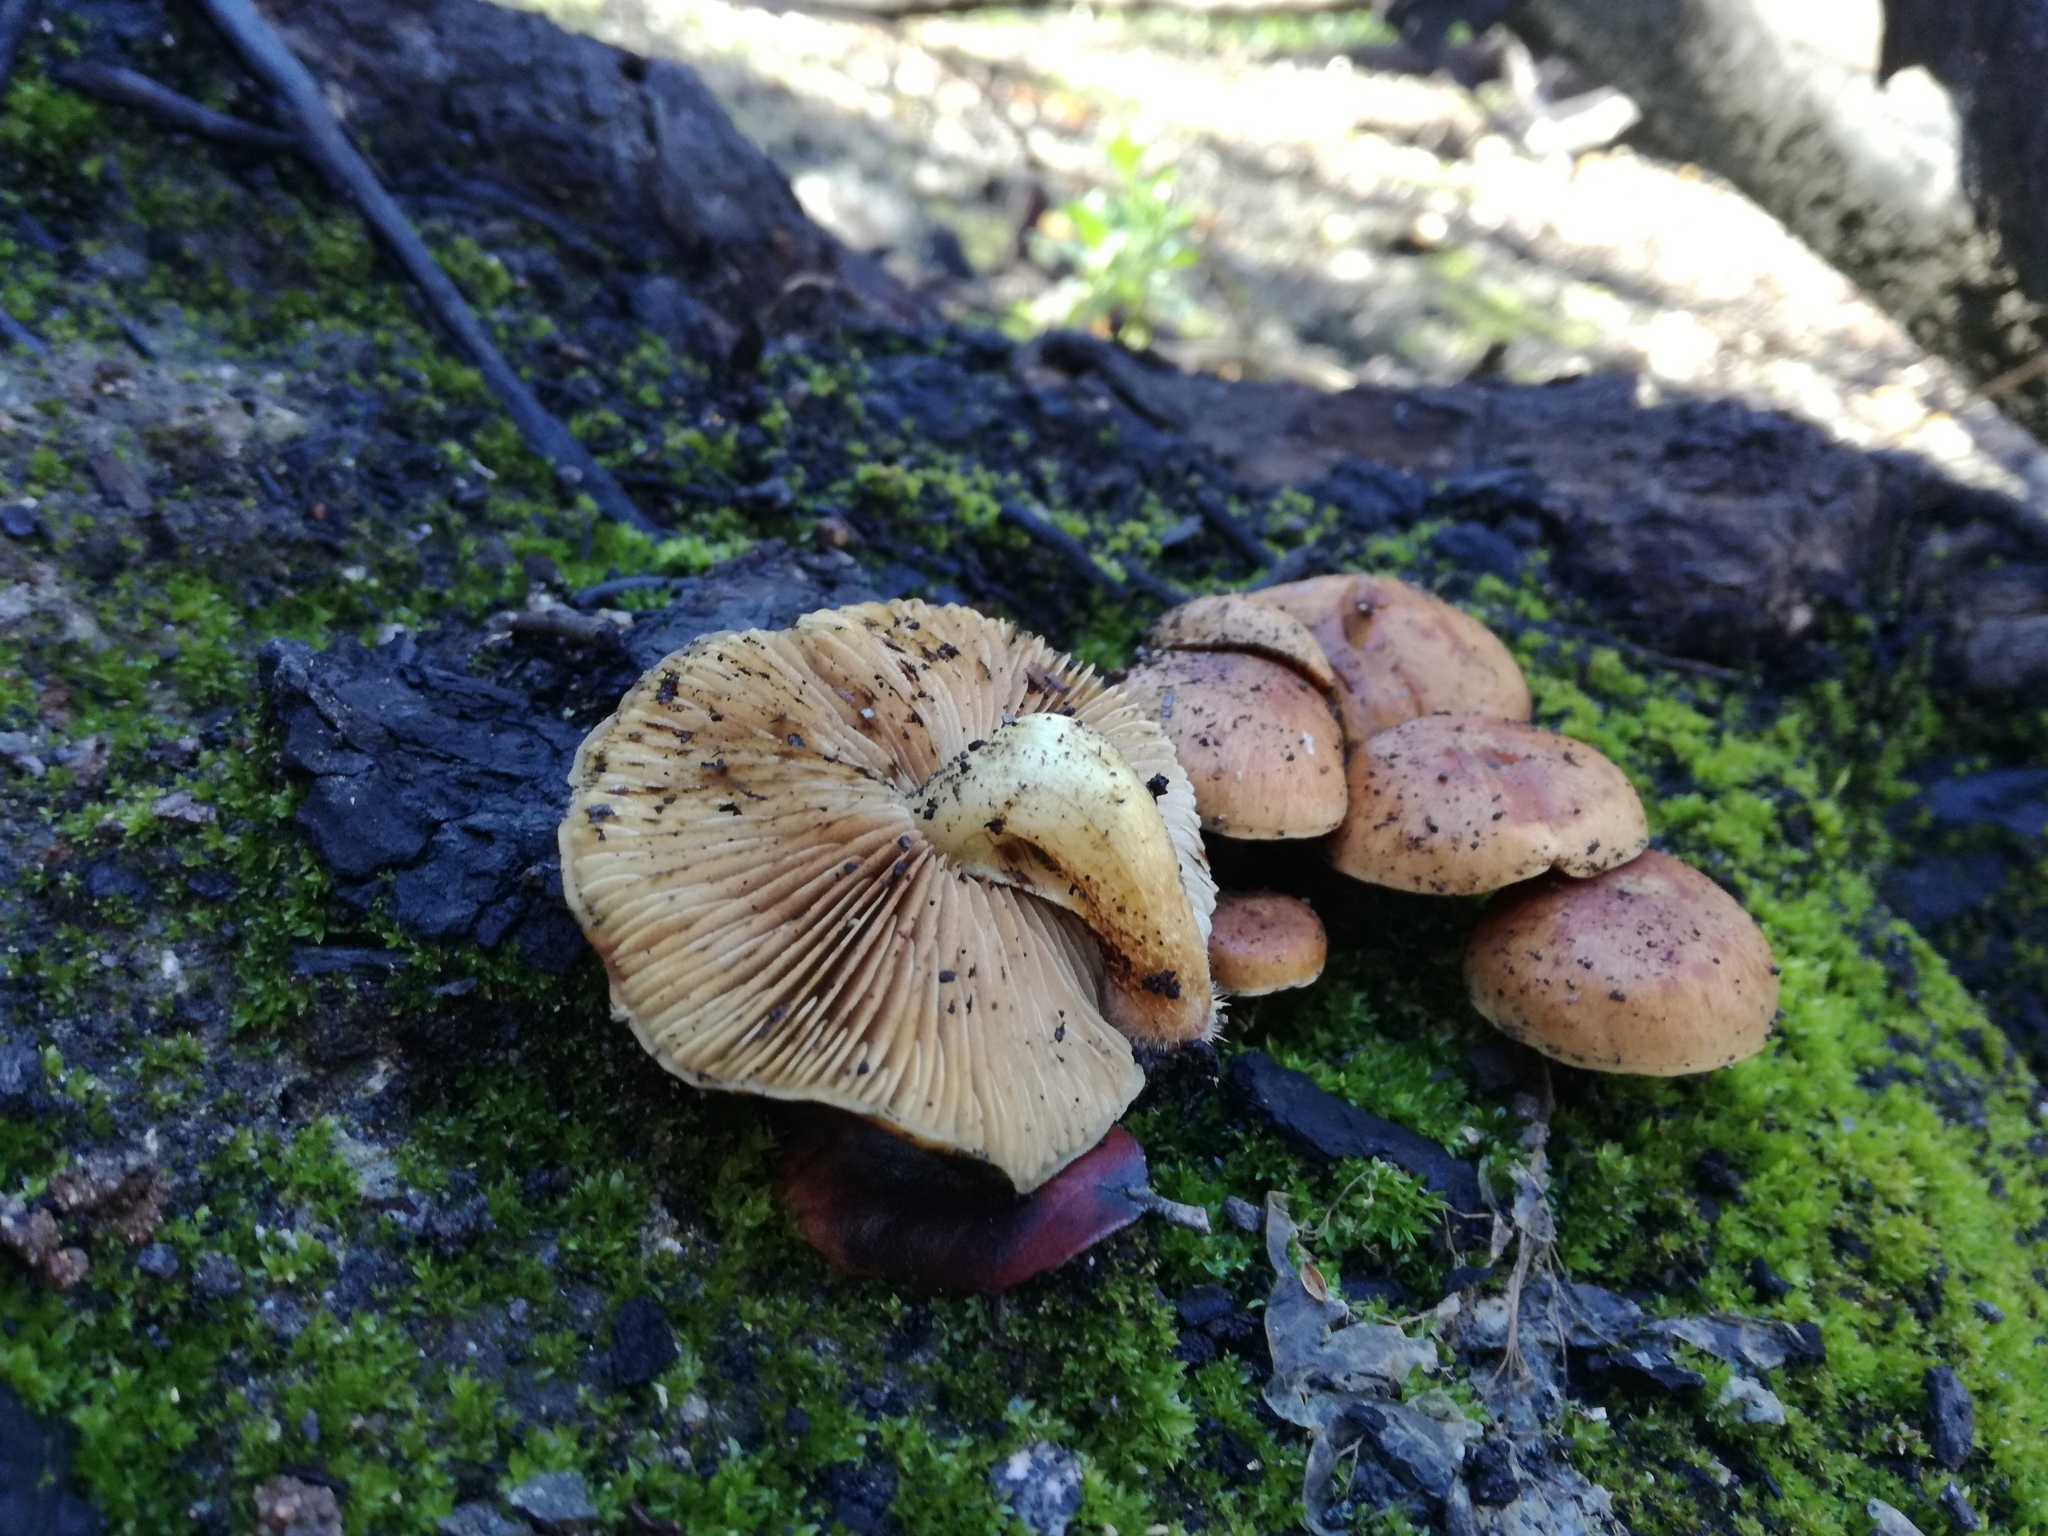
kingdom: Fungi
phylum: Basidiomycota
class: Agaricomycetes
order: Agaricales
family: Strophariaceae
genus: Pholiota
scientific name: Pholiota carbonaria
